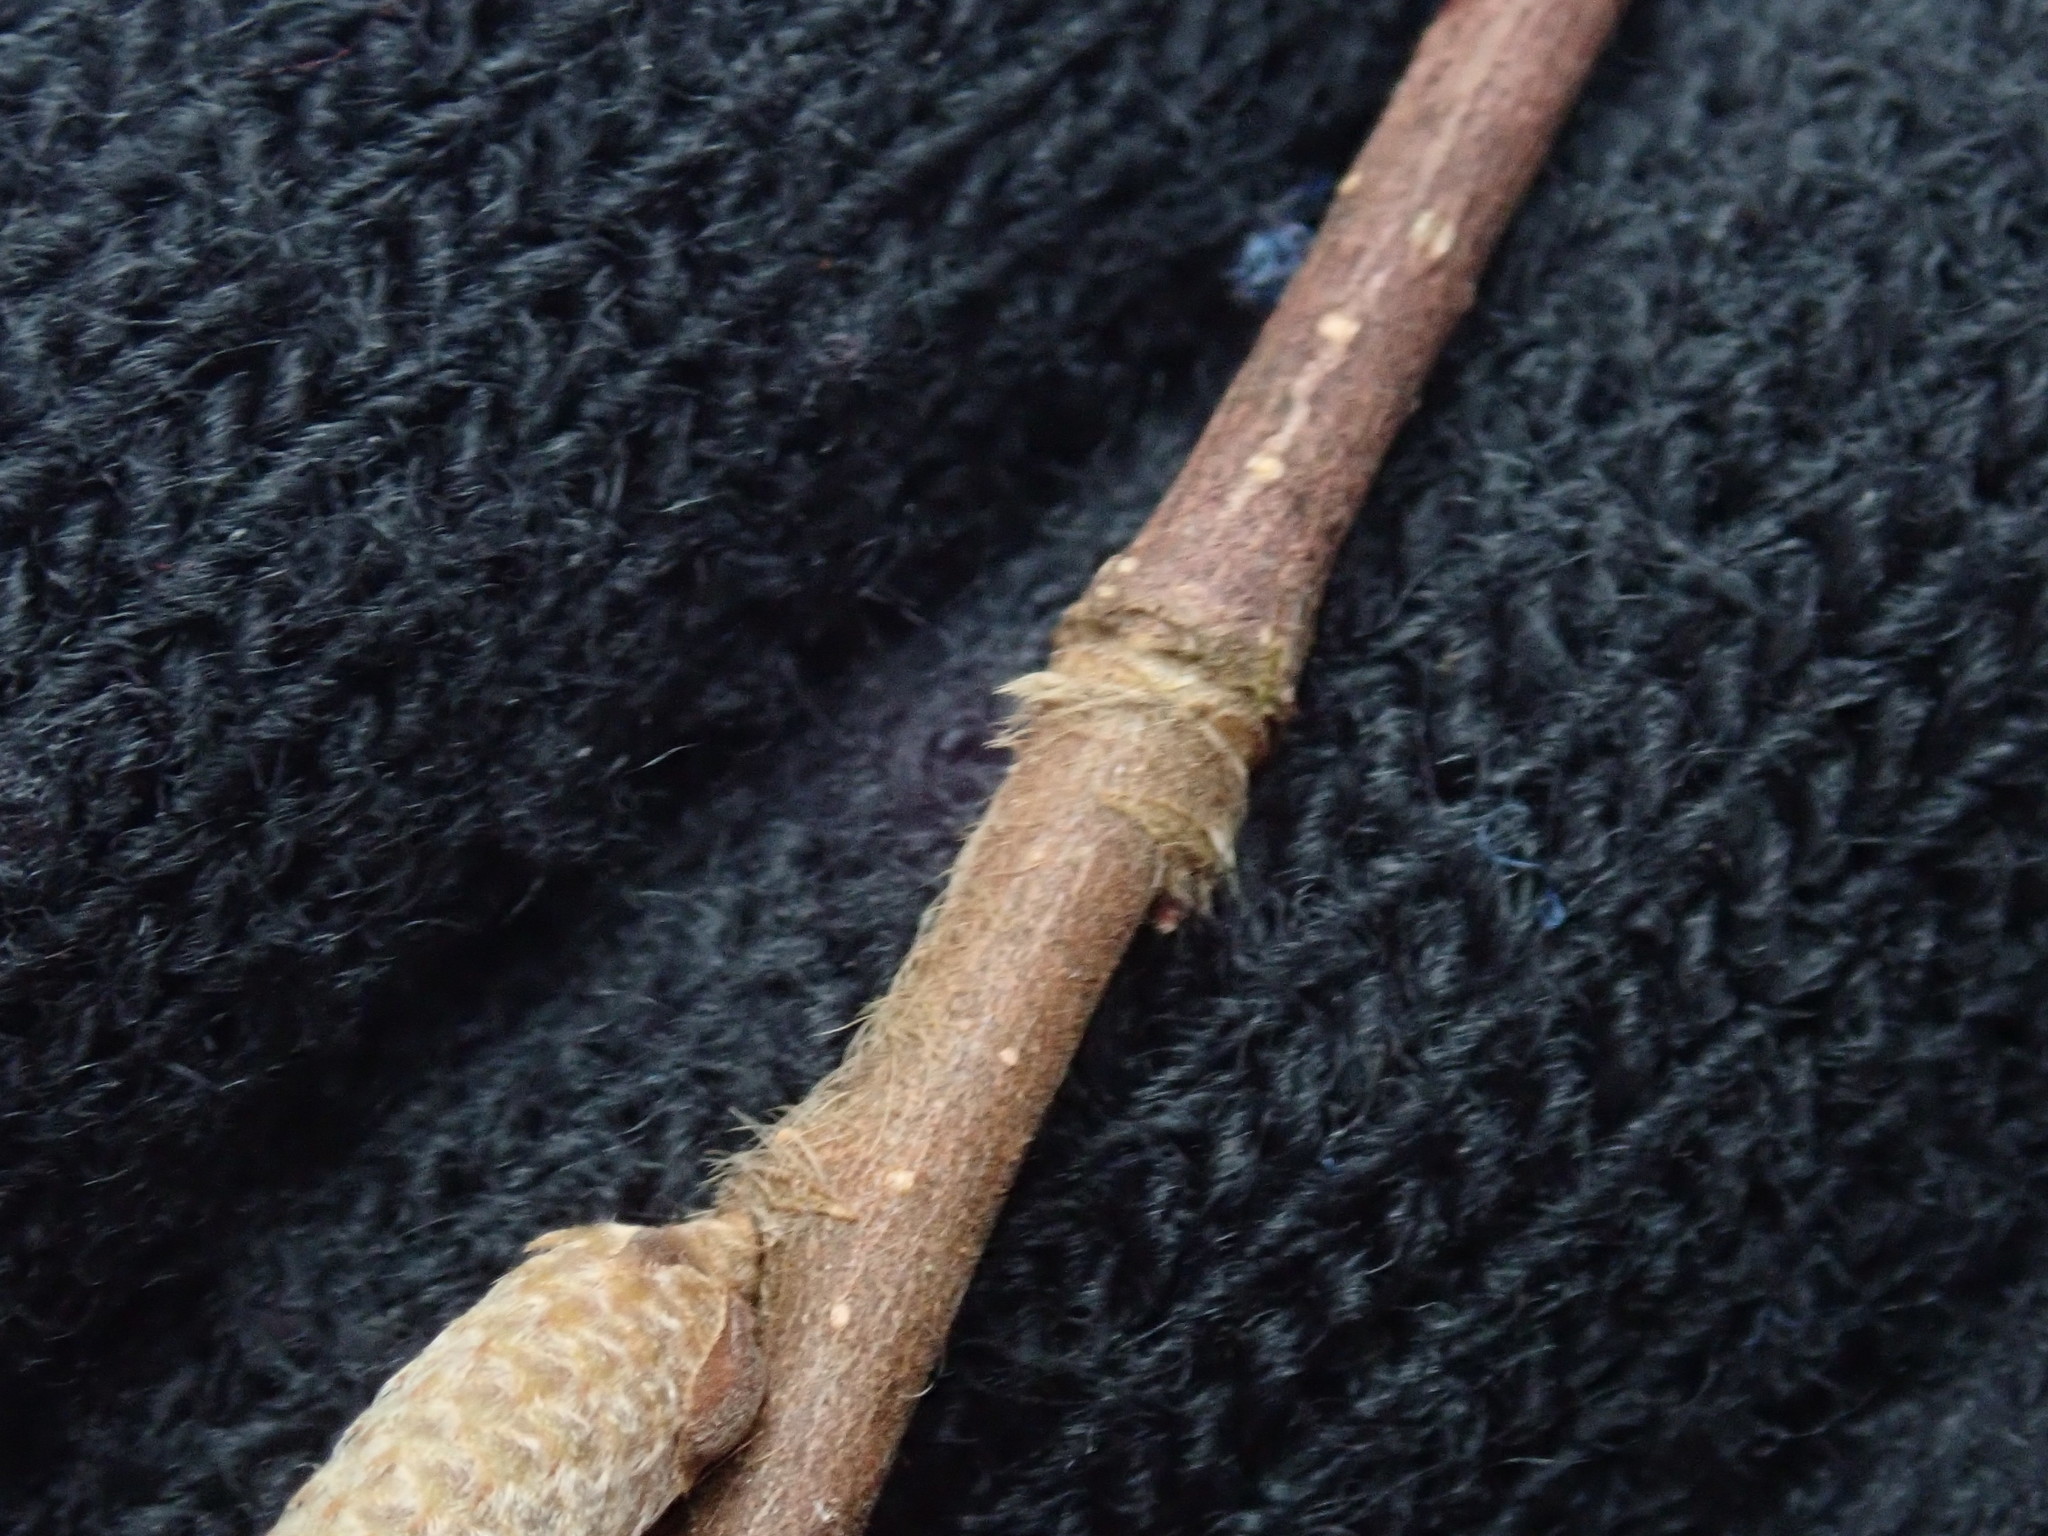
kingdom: Plantae
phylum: Tracheophyta
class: Magnoliopsida
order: Fagales
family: Betulaceae
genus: Corylus
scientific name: Corylus cornuta
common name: Beaked hazel
